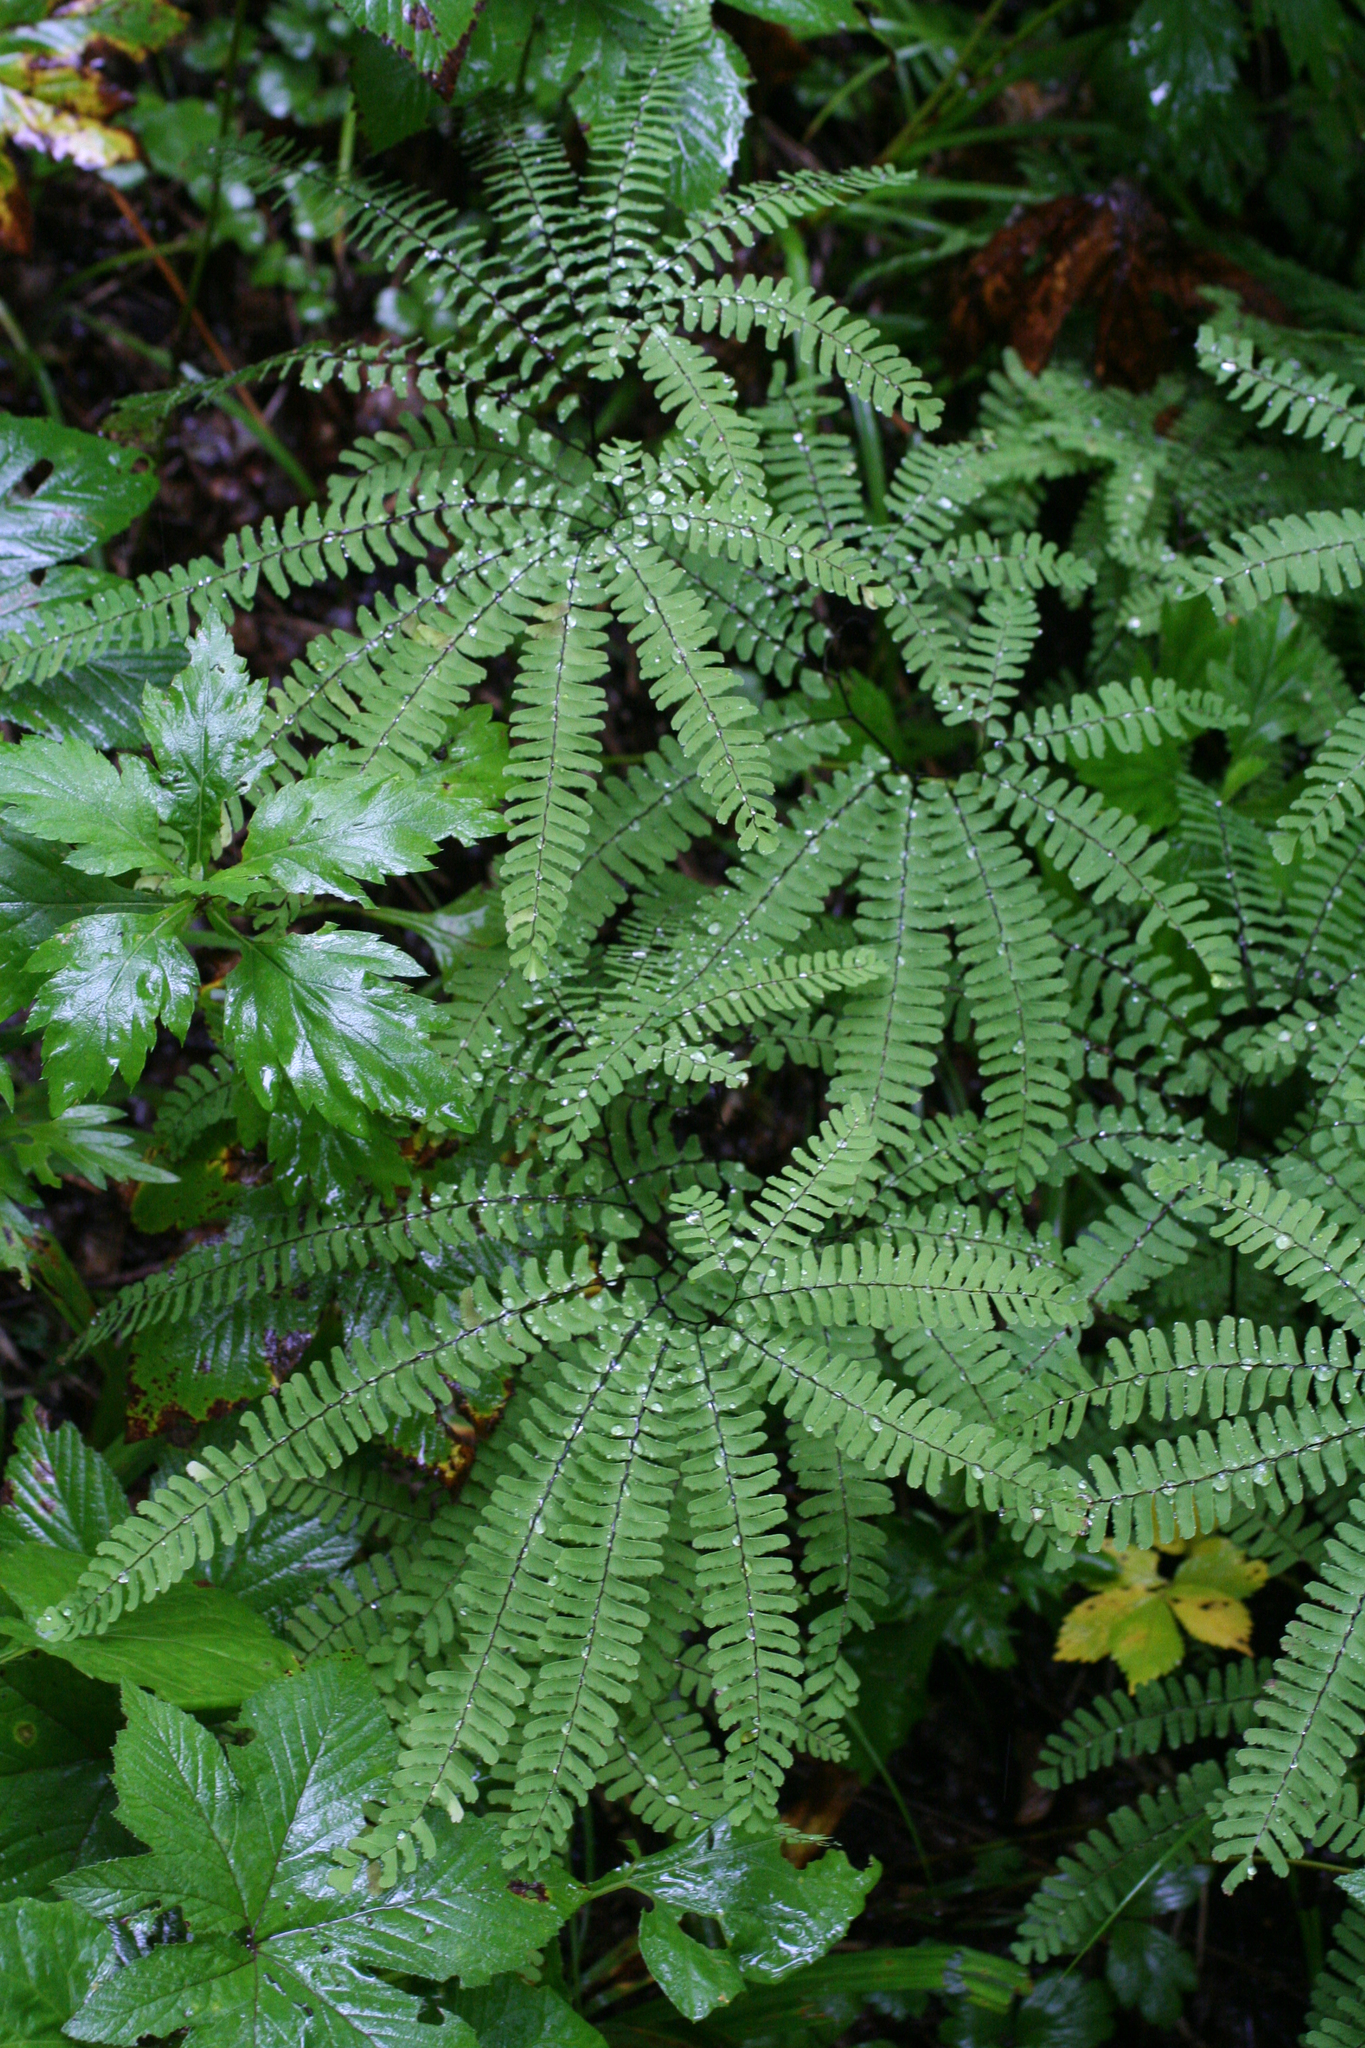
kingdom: Plantae
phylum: Tracheophyta
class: Polypodiopsida
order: Polypodiales
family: Pteridaceae
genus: Adiantum
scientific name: Adiantum pedatum
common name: Five-finger fern
